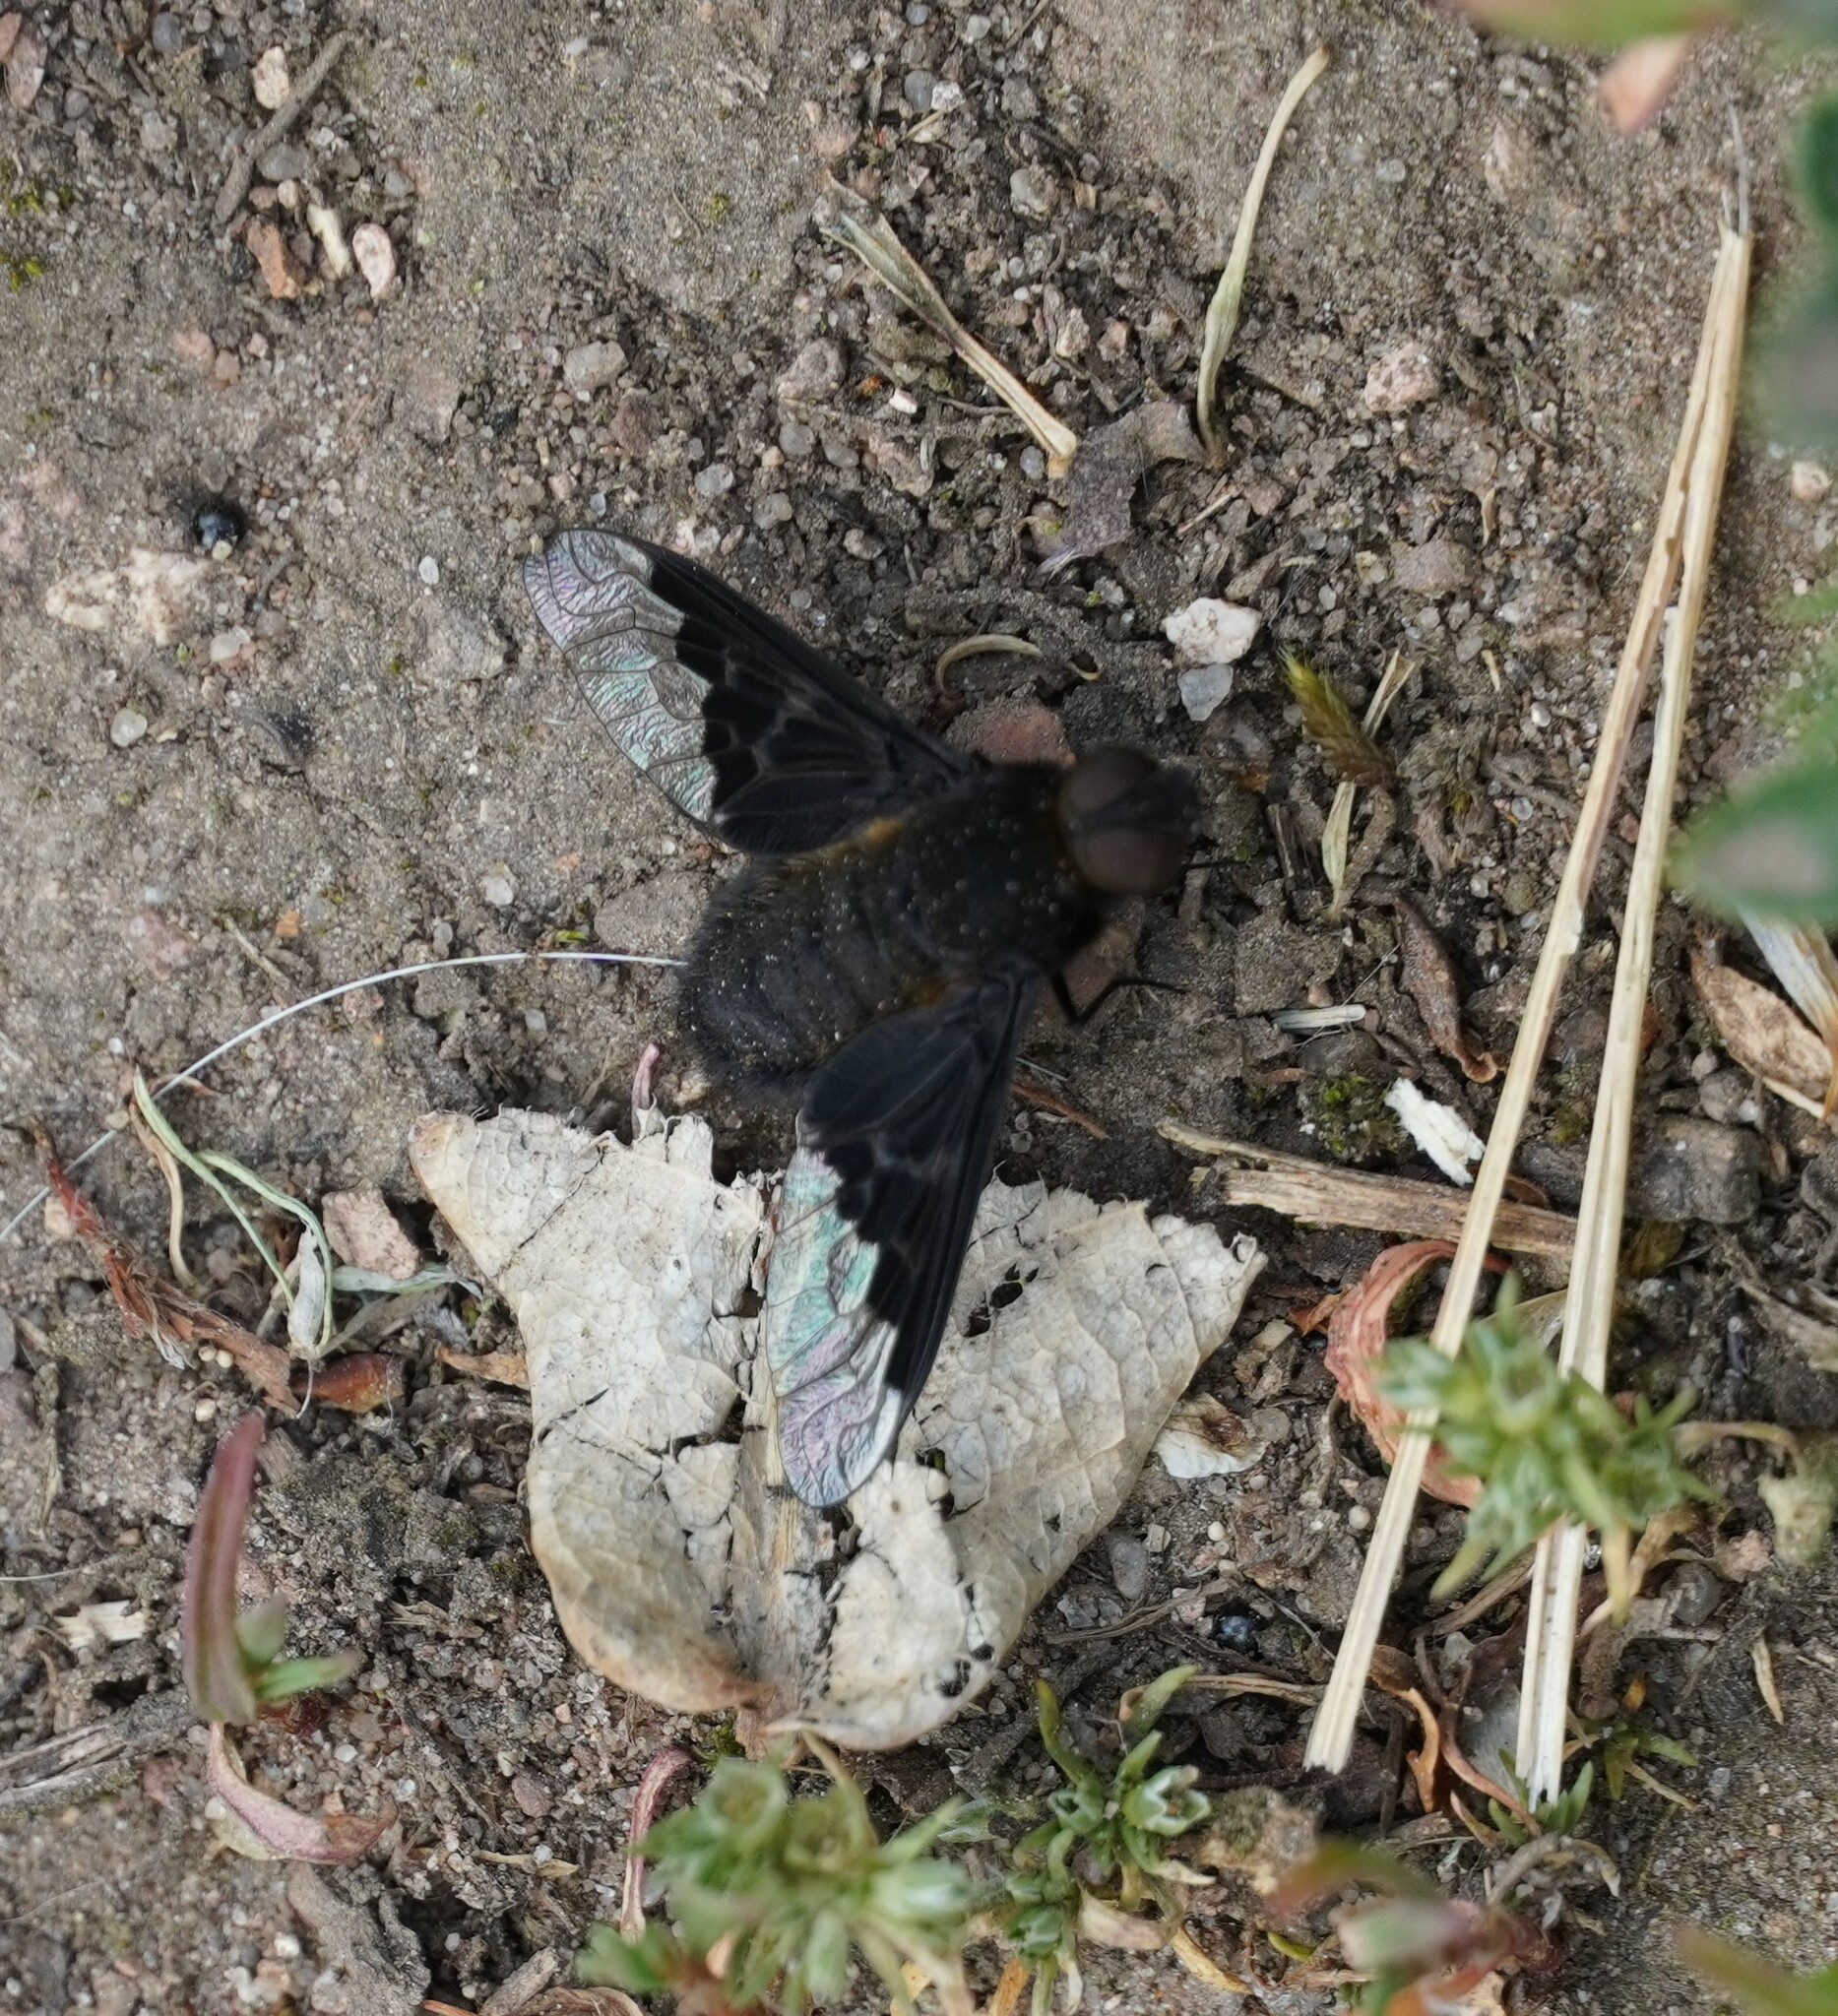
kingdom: Animalia
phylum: Arthropoda
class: Insecta
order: Diptera
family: Bombyliidae
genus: Hemipenthes
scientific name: Hemipenthes morio
